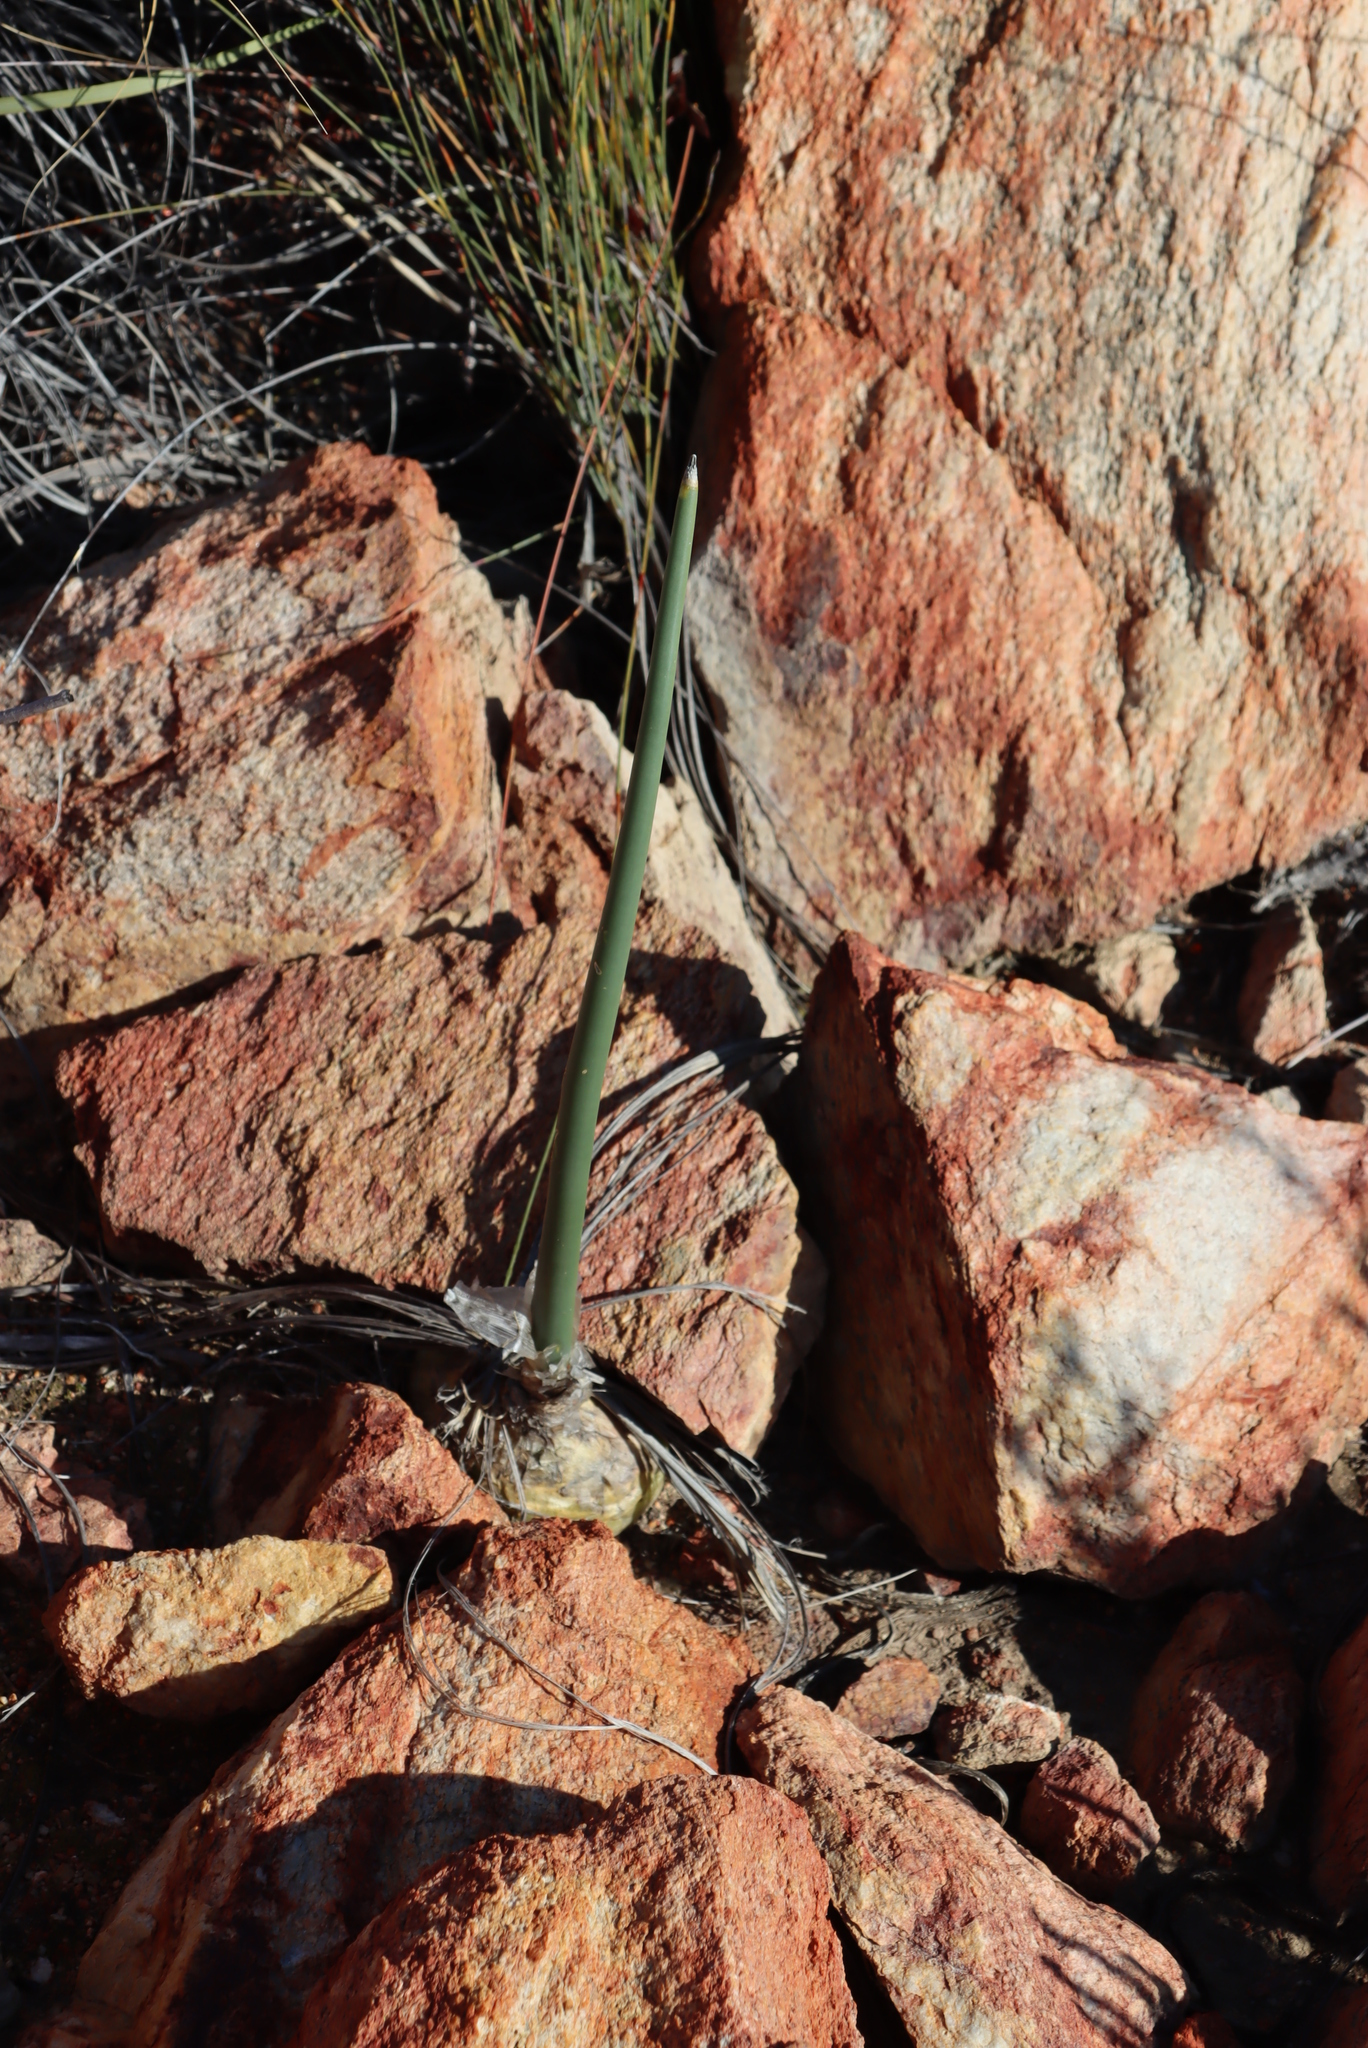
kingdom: Plantae
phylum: Tracheophyta
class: Liliopsida
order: Asparagales
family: Asparagaceae
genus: Drimia
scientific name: Drimia anomala
